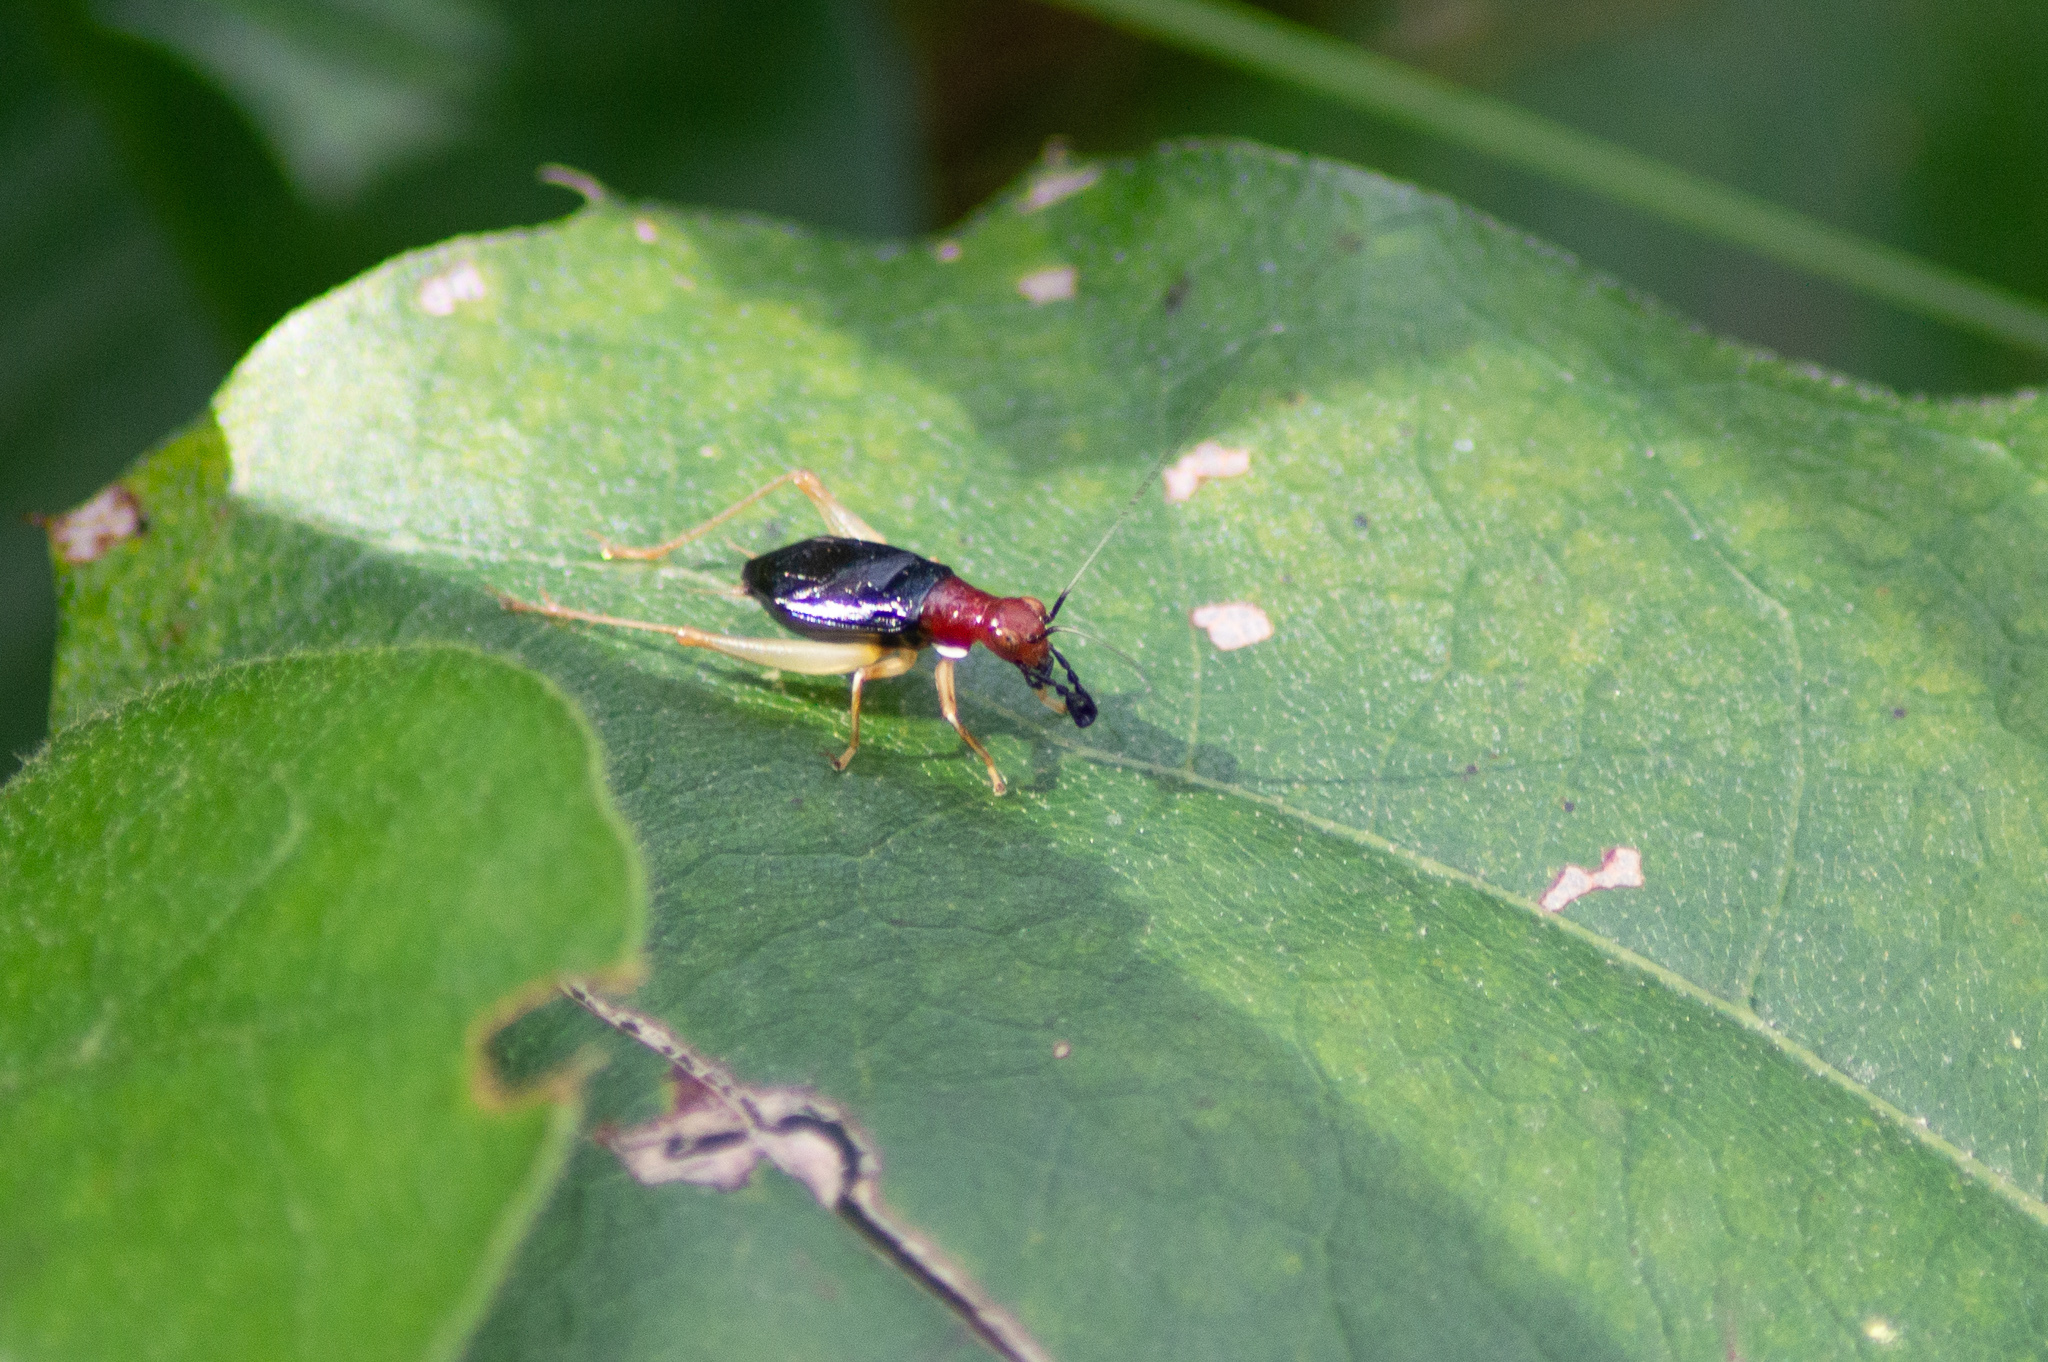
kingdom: Animalia
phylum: Arthropoda
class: Insecta
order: Orthoptera
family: Trigonidiidae
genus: Phyllopalpus
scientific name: Phyllopalpus pulchellus
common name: Handsome trig
